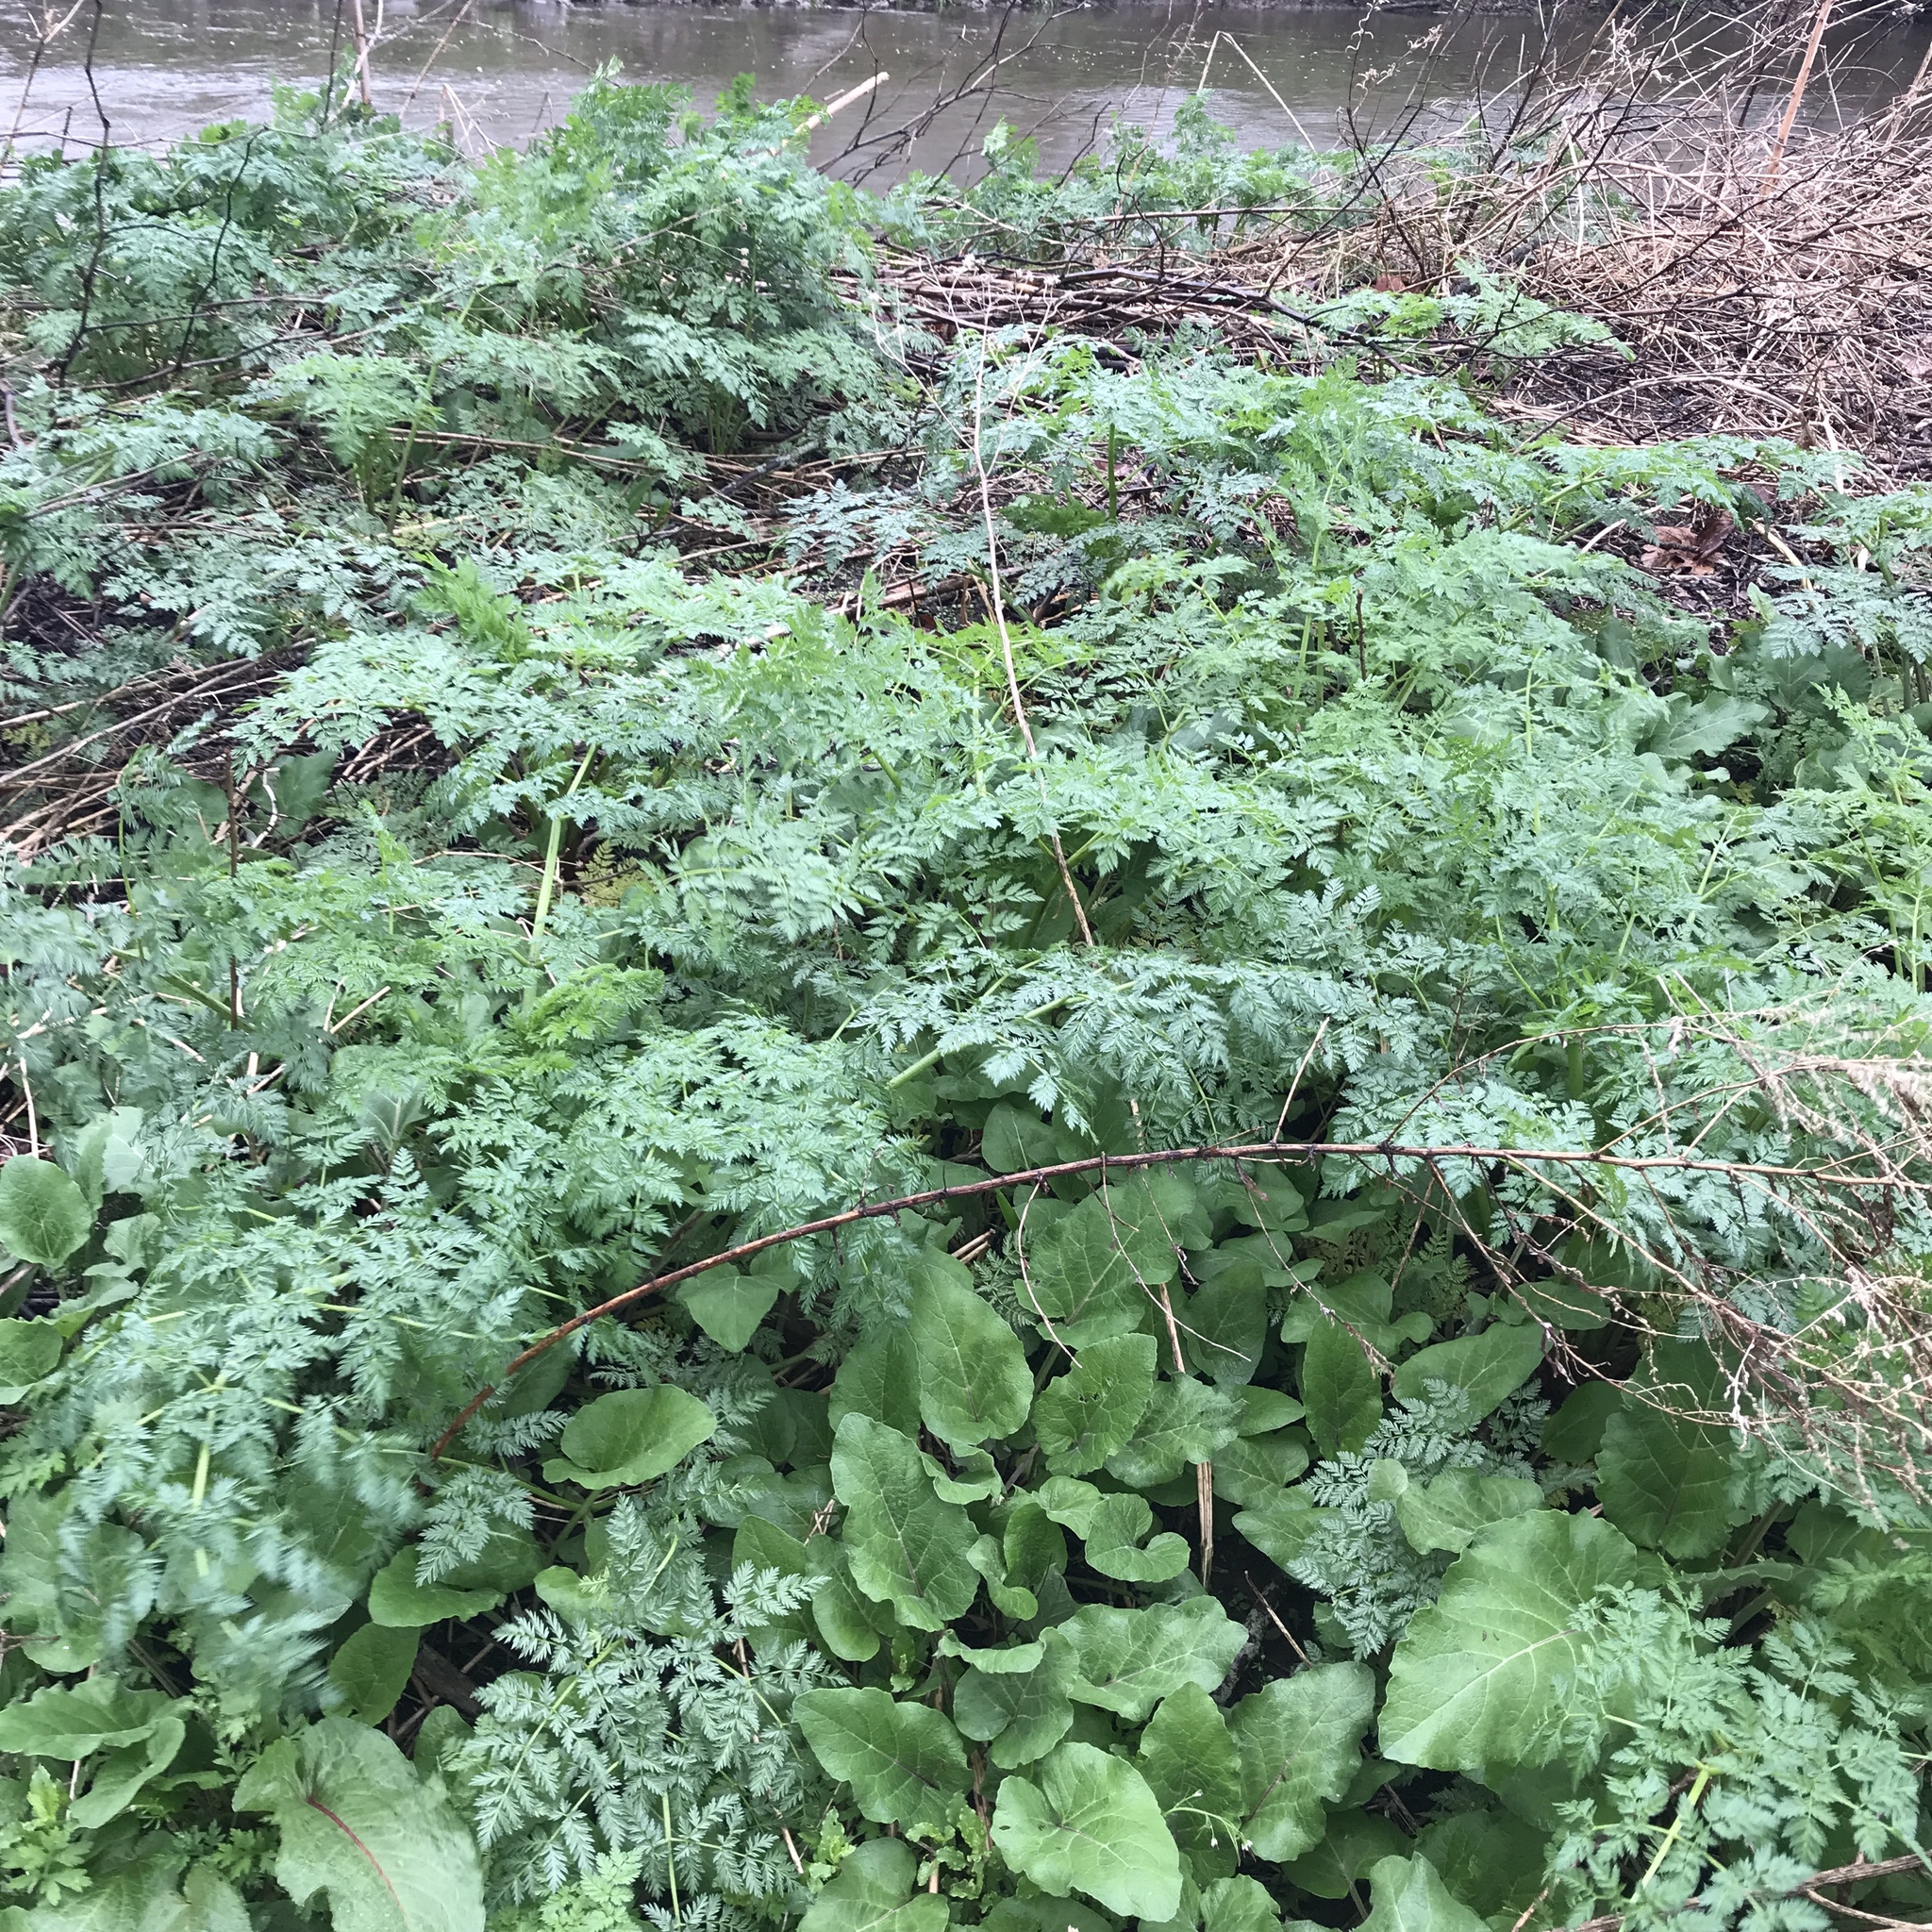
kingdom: Plantae
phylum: Tracheophyta
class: Magnoliopsida
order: Apiales
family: Apiaceae
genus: Conium
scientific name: Conium maculatum
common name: Hemlock
